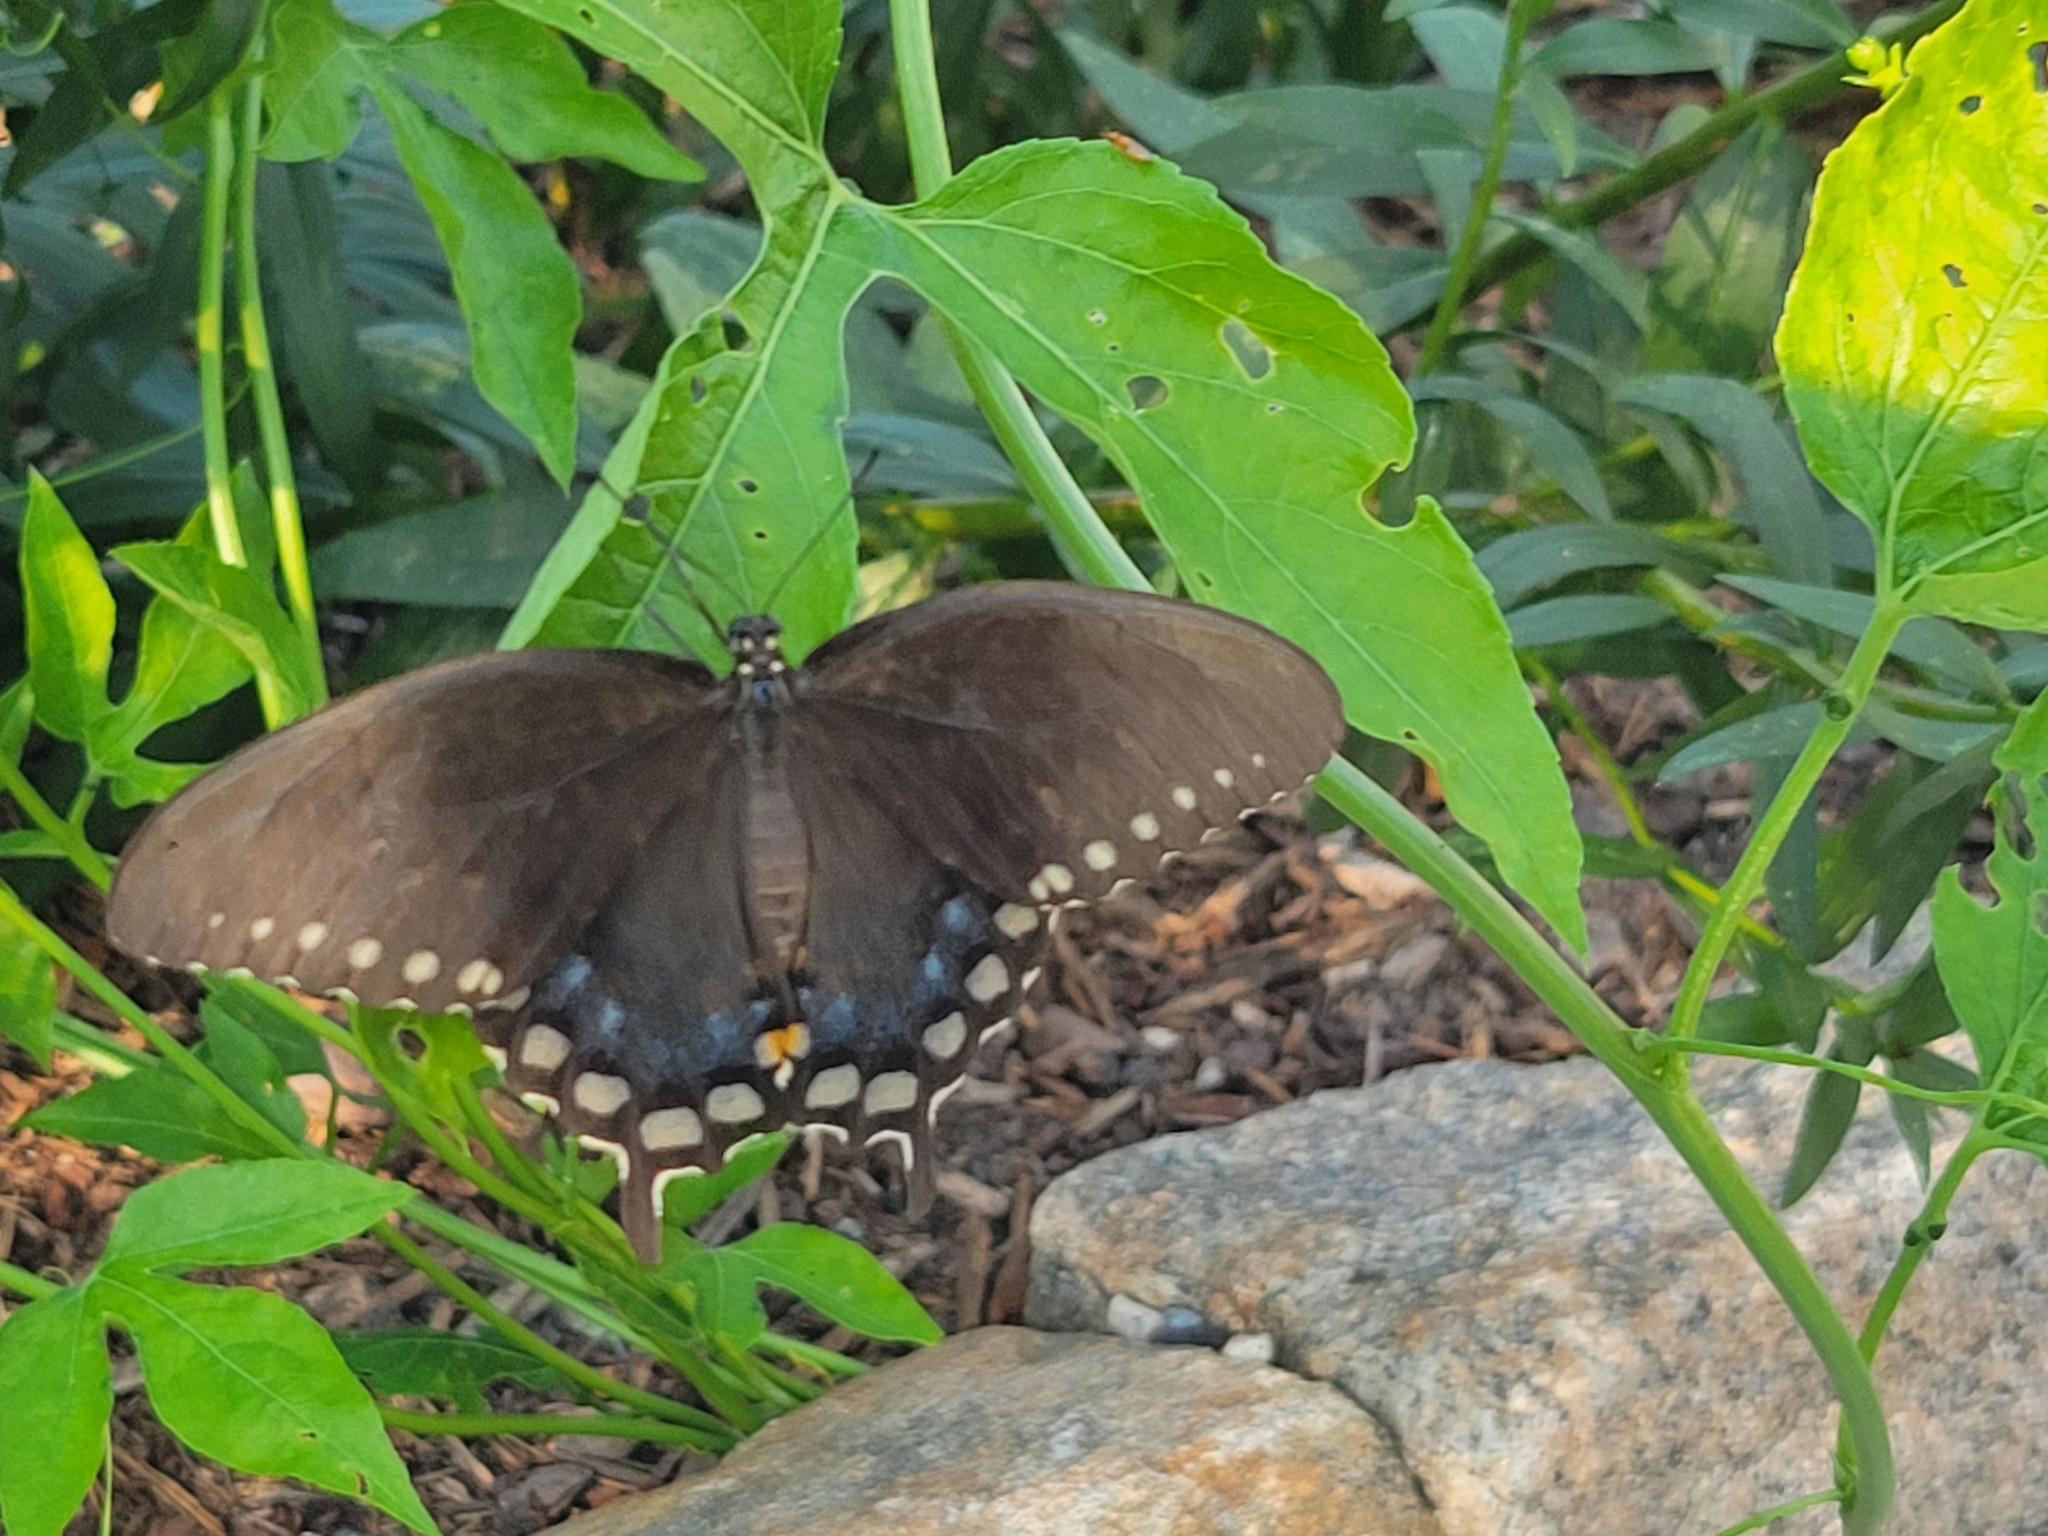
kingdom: Animalia
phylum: Arthropoda
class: Insecta
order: Lepidoptera
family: Papilionidae
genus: Papilio
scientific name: Papilio troilus
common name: Spicebush swallowtail
